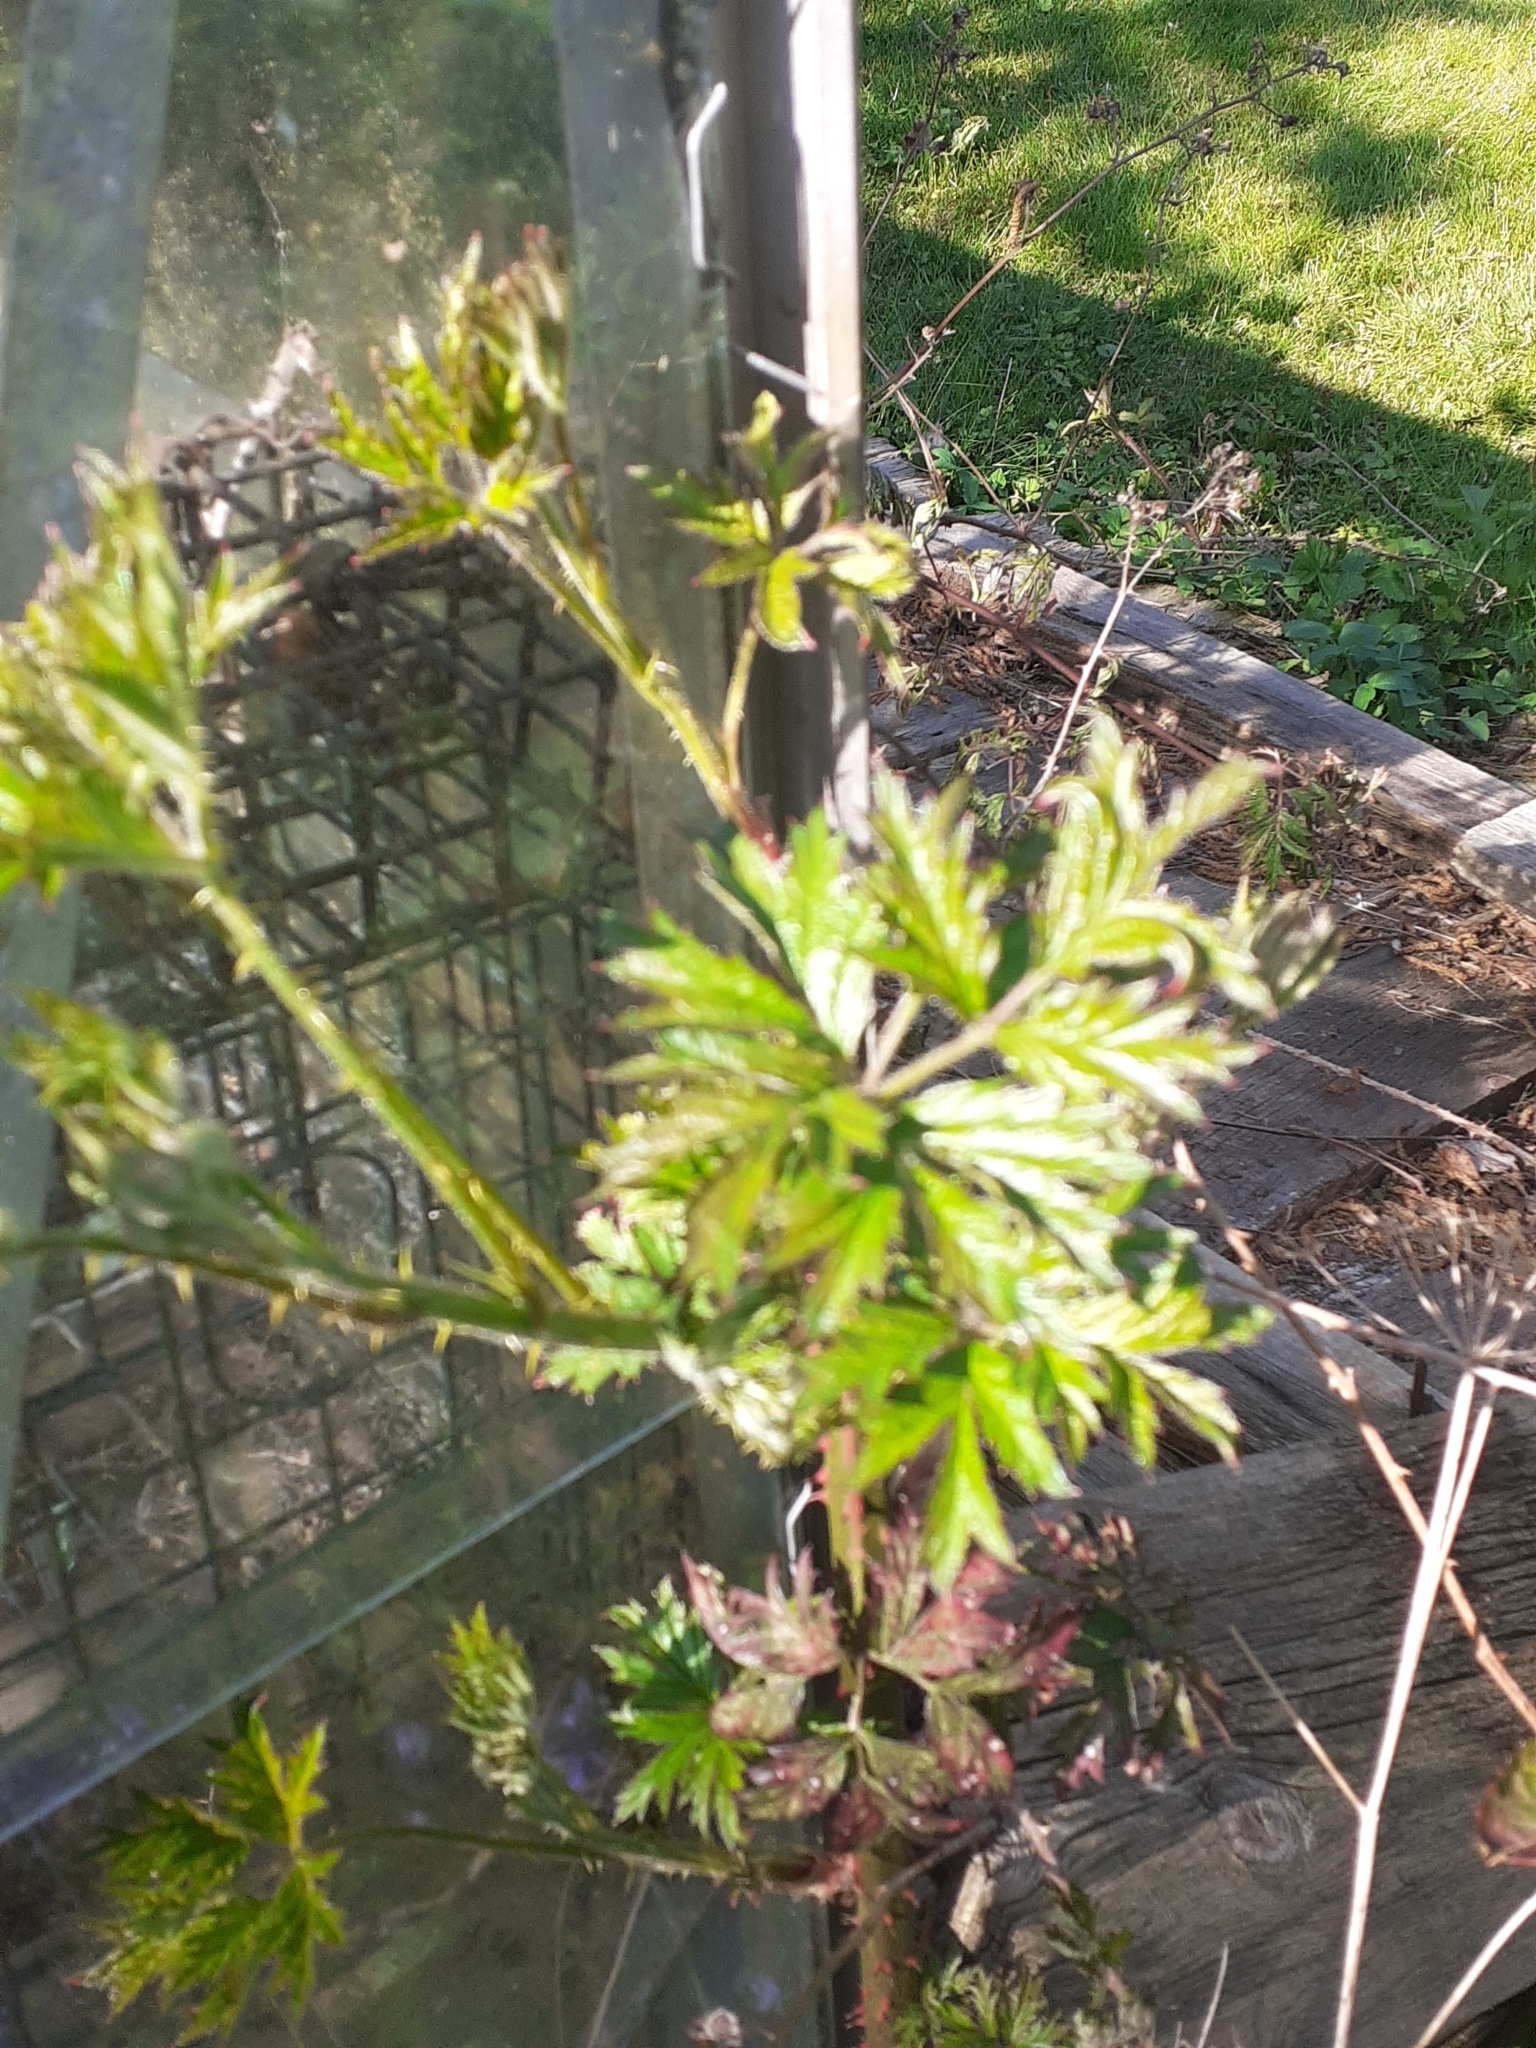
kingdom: Plantae
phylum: Tracheophyta
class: Magnoliopsida
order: Rosales
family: Rosaceae
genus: Rubus
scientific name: Rubus laciniatus
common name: Evergreen blackberry
